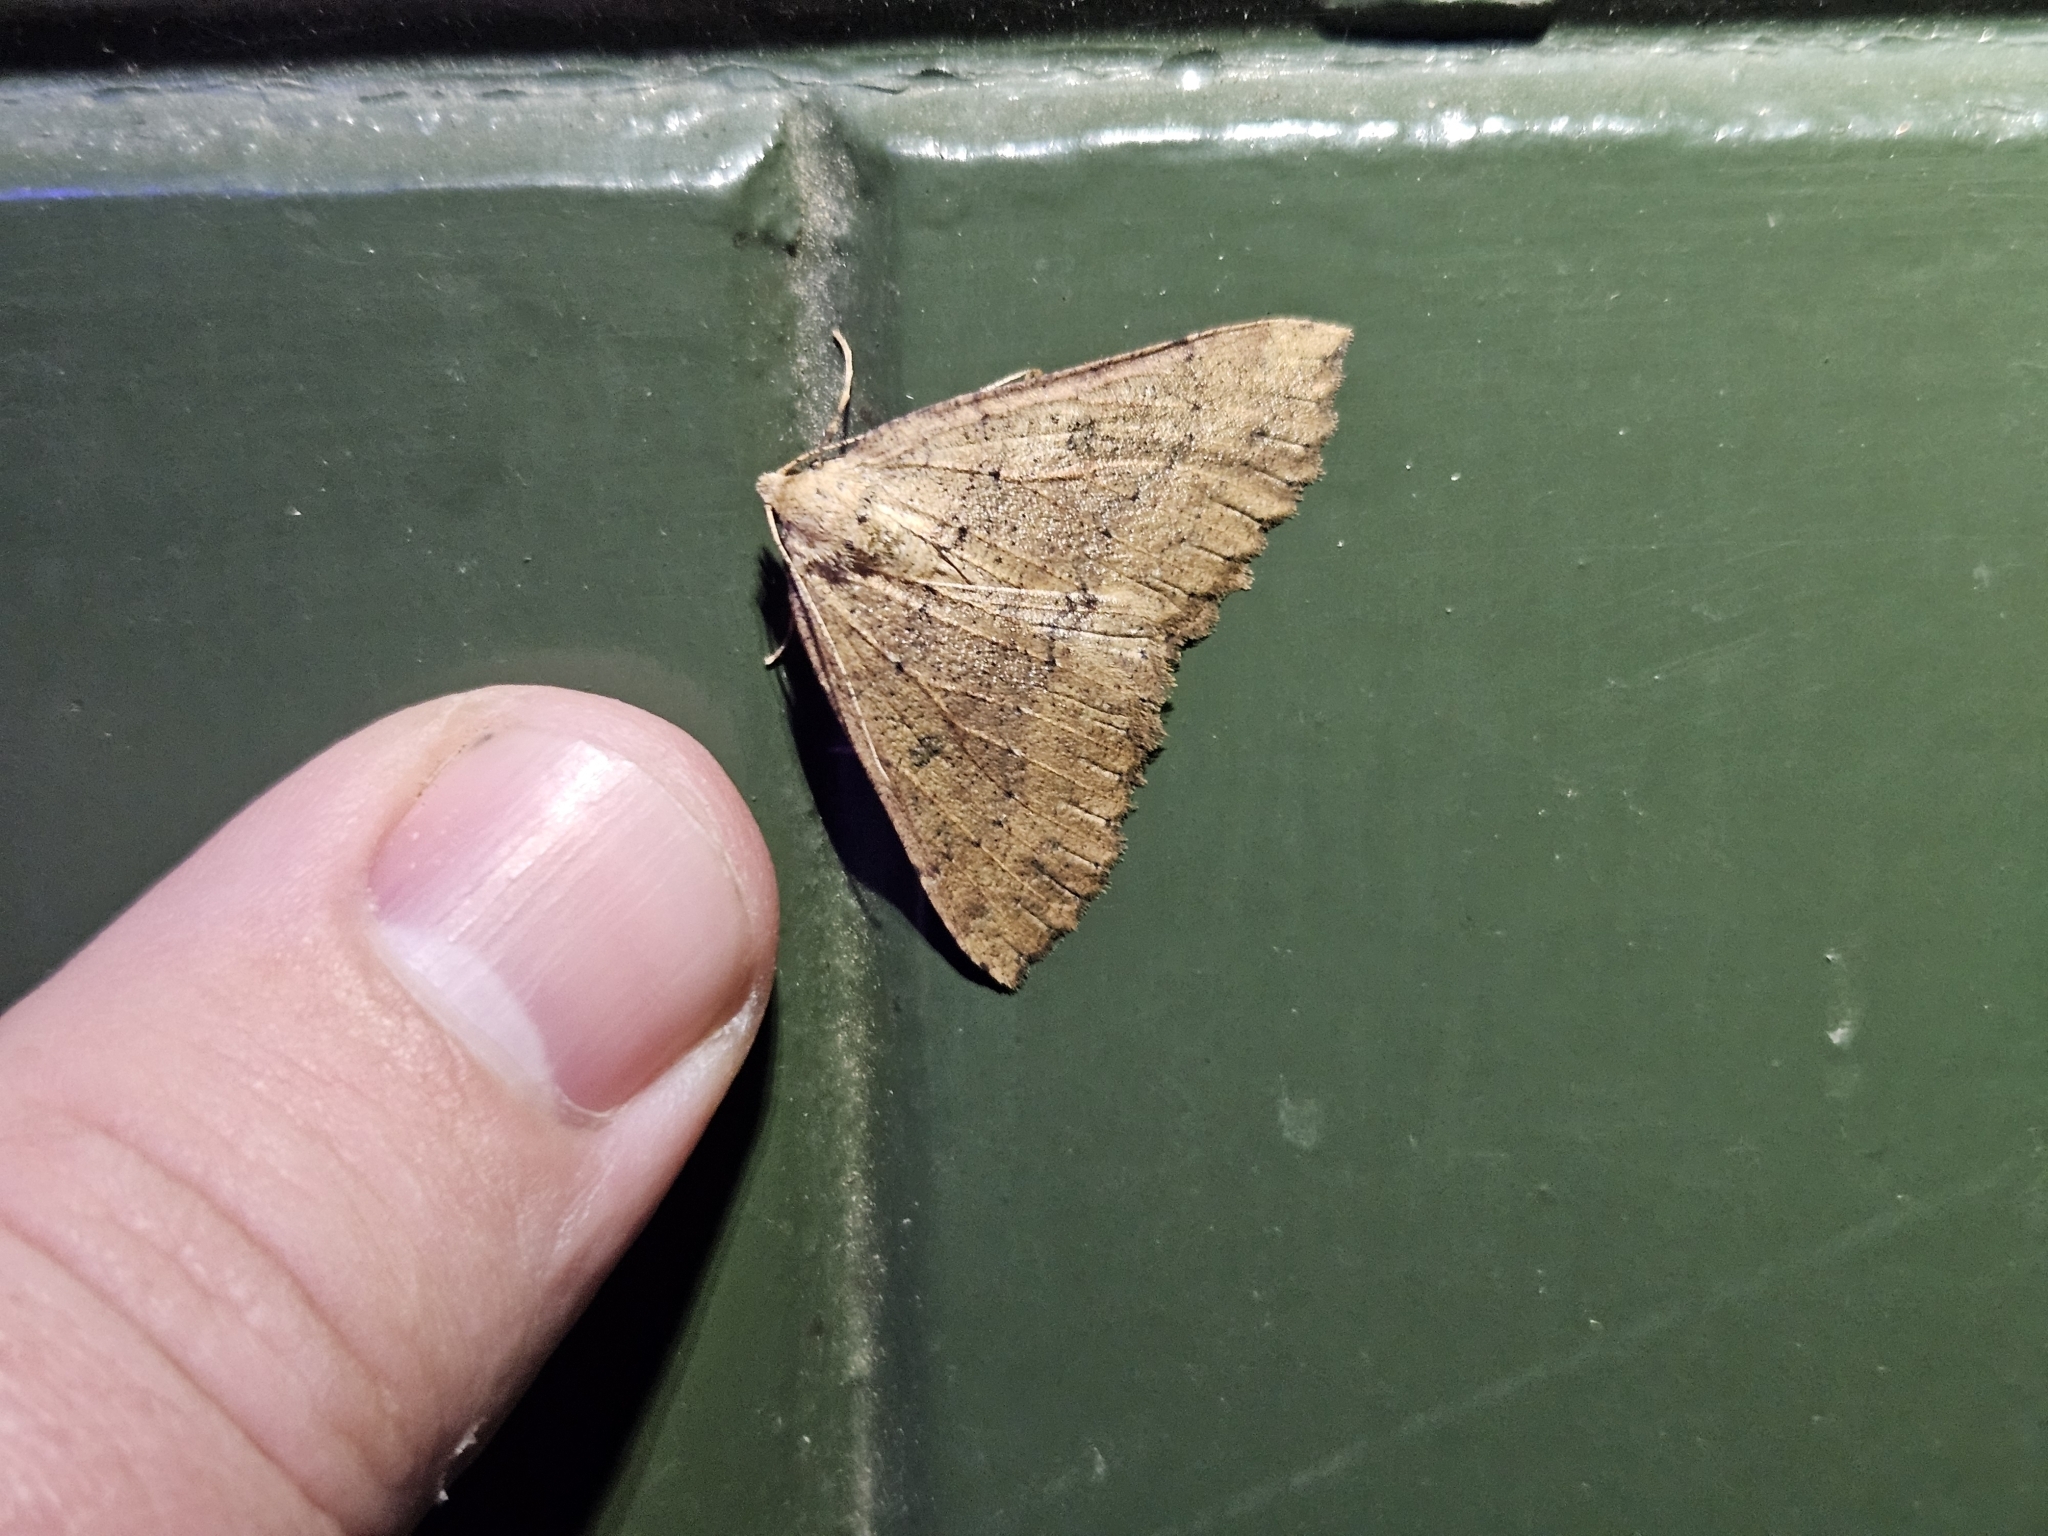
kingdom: Animalia
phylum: Arthropoda
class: Insecta
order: Lepidoptera
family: Geometridae
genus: Cleora
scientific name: Cleora scriptaria
